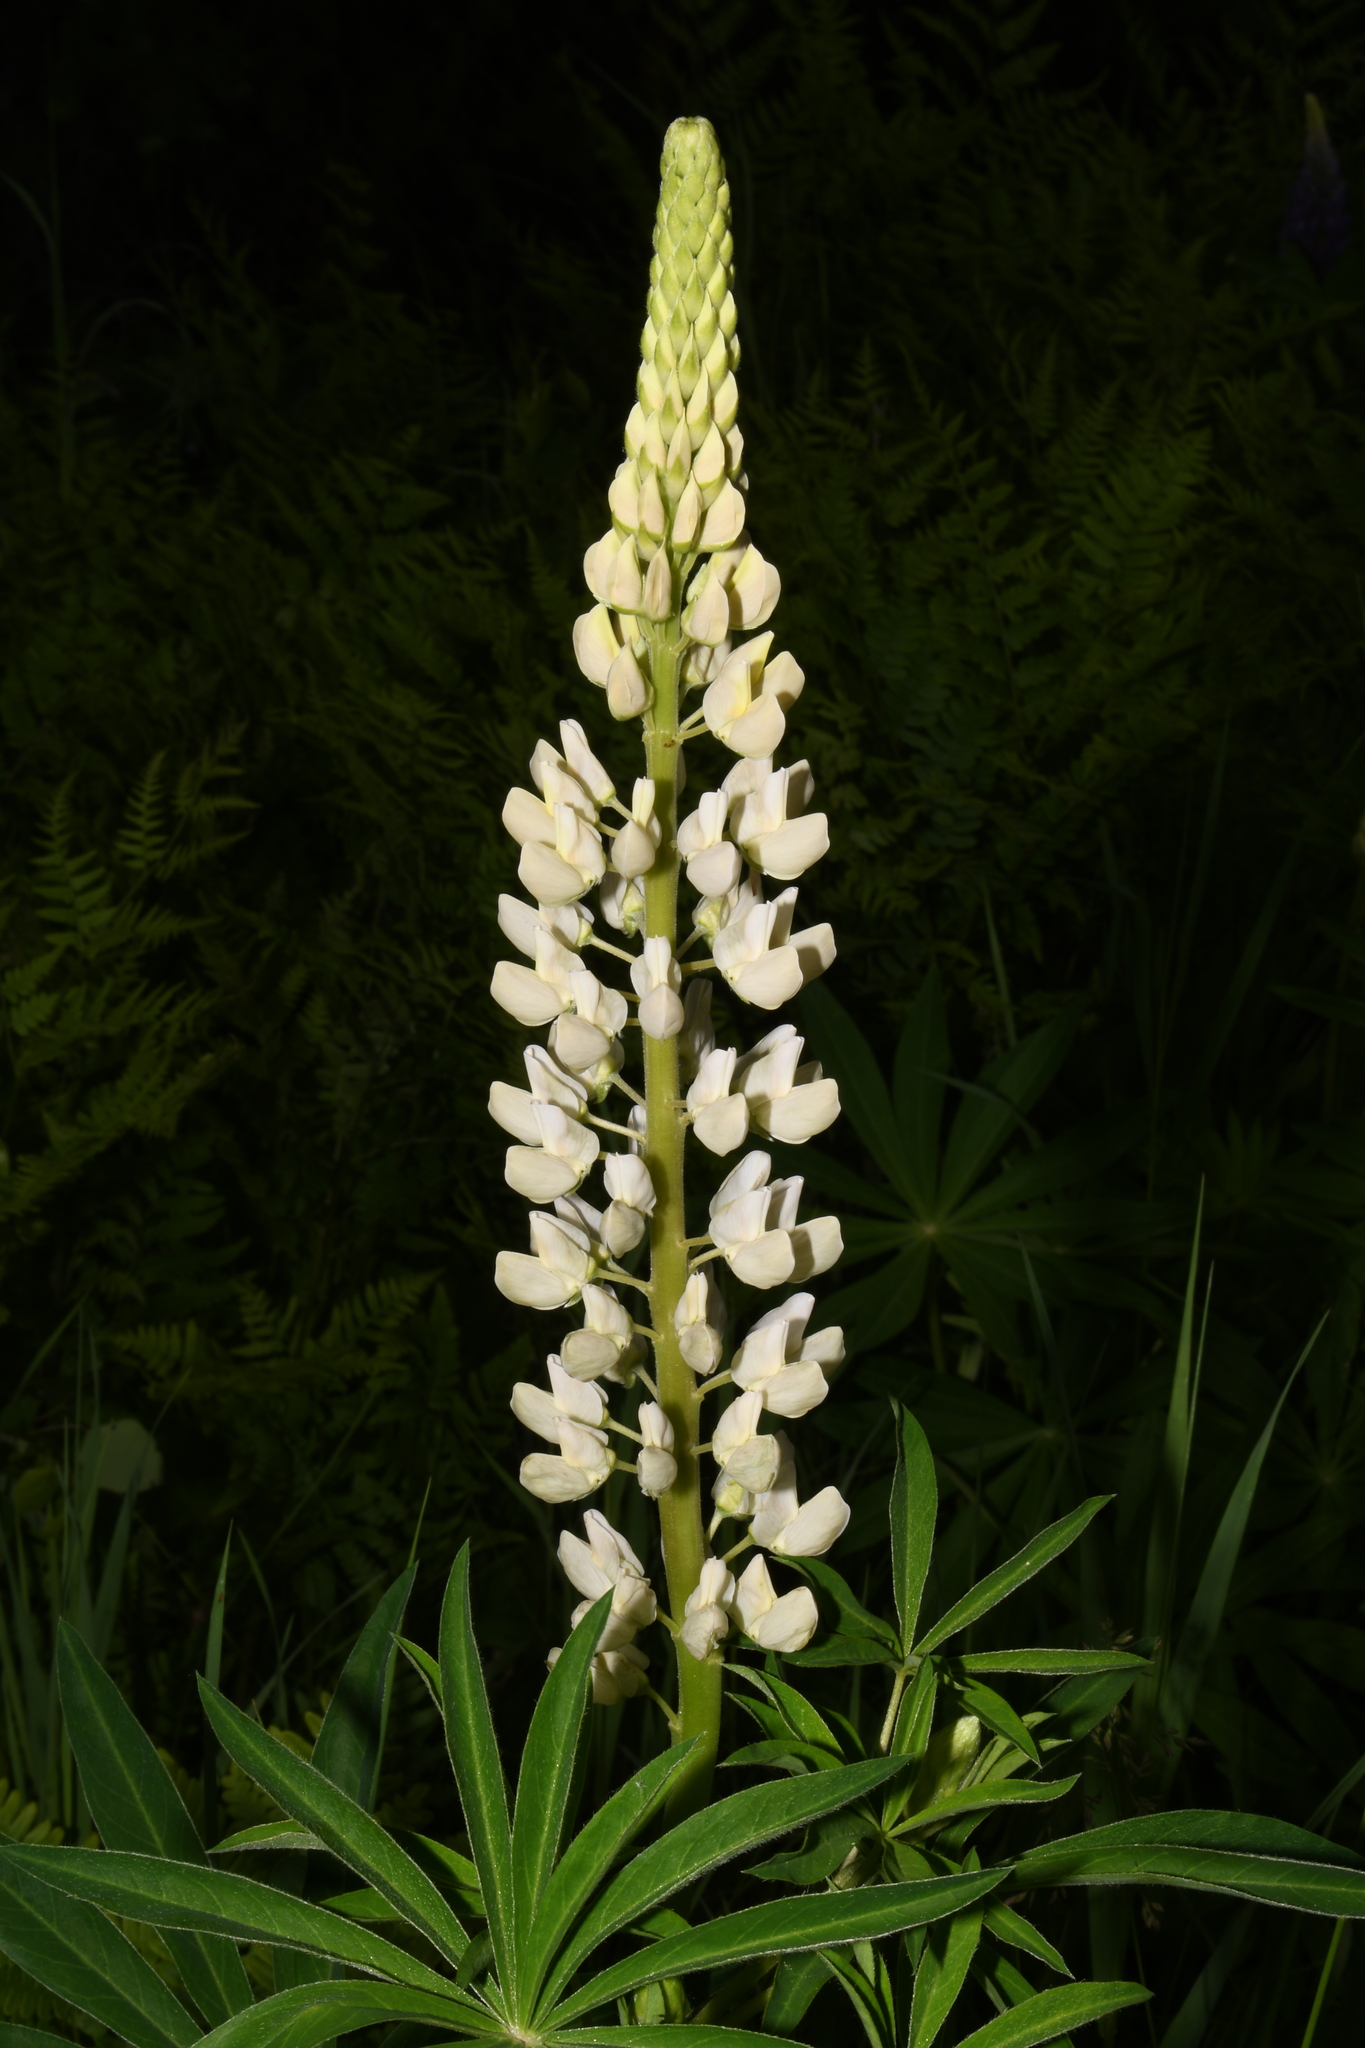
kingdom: Plantae
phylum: Tracheophyta
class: Magnoliopsida
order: Fabales
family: Fabaceae
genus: Lupinus
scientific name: Lupinus polyphyllus
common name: Garden lupin
